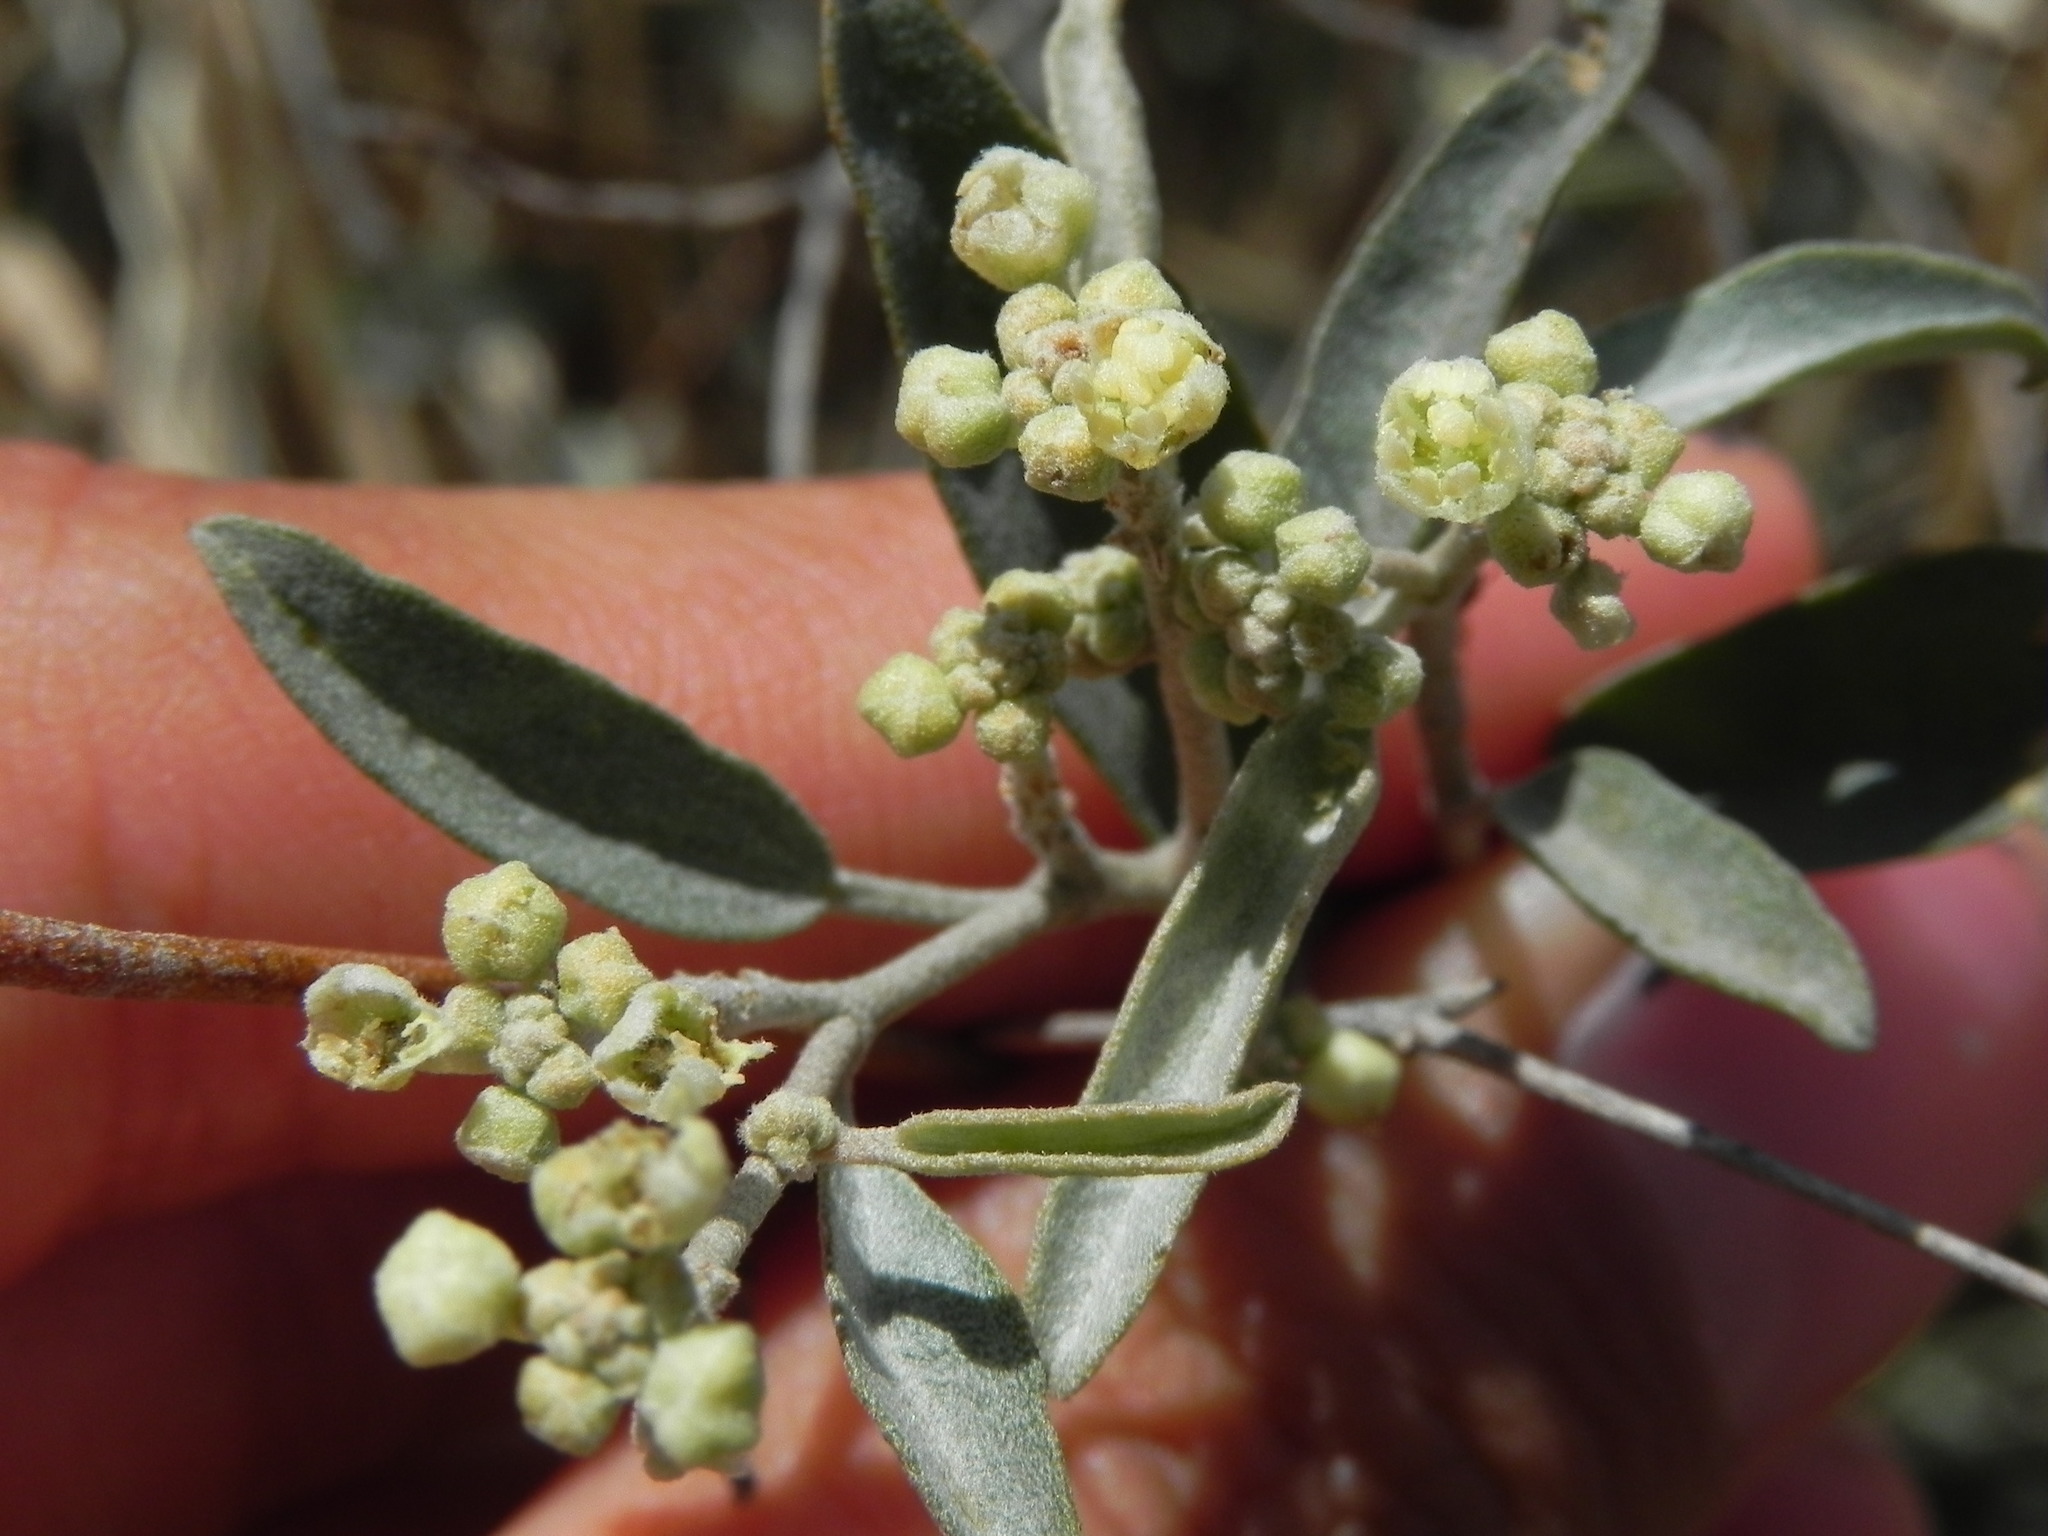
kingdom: Plantae
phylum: Tracheophyta
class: Magnoliopsida
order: Malpighiales
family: Euphorbiaceae
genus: Croton
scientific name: Croton californicus
